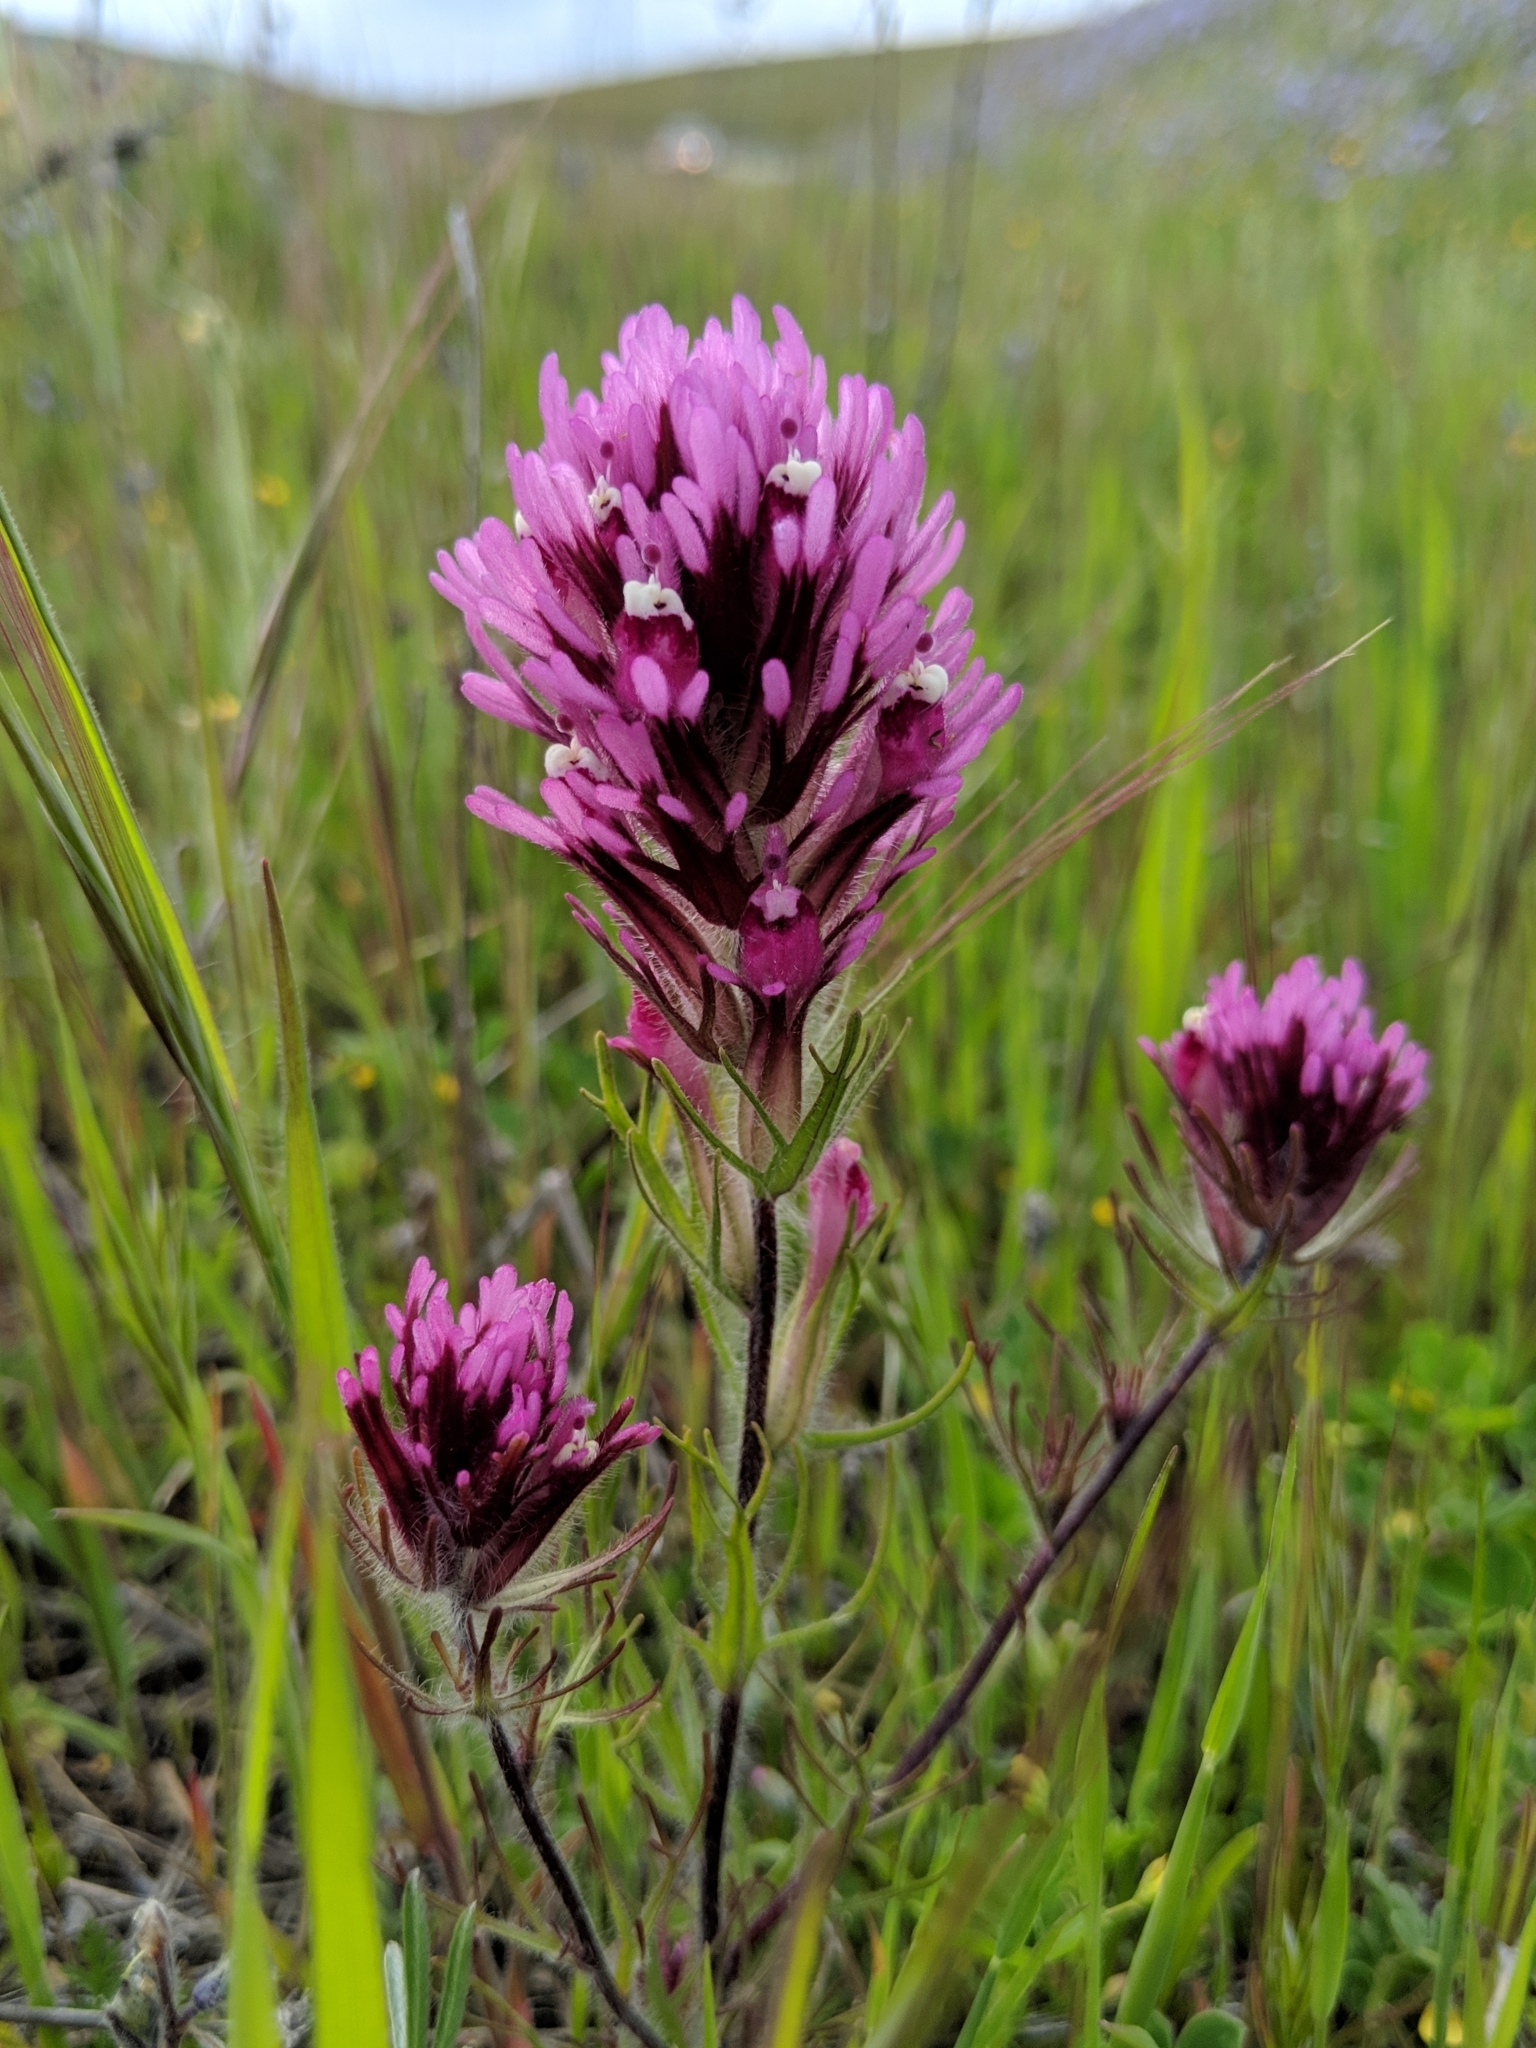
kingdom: Plantae
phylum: Tracheophyta
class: Magnoliopsida
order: Lamiales
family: Orobanchaceae
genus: Castilleja
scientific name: Castilleja exserta
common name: Purple owl-clover
